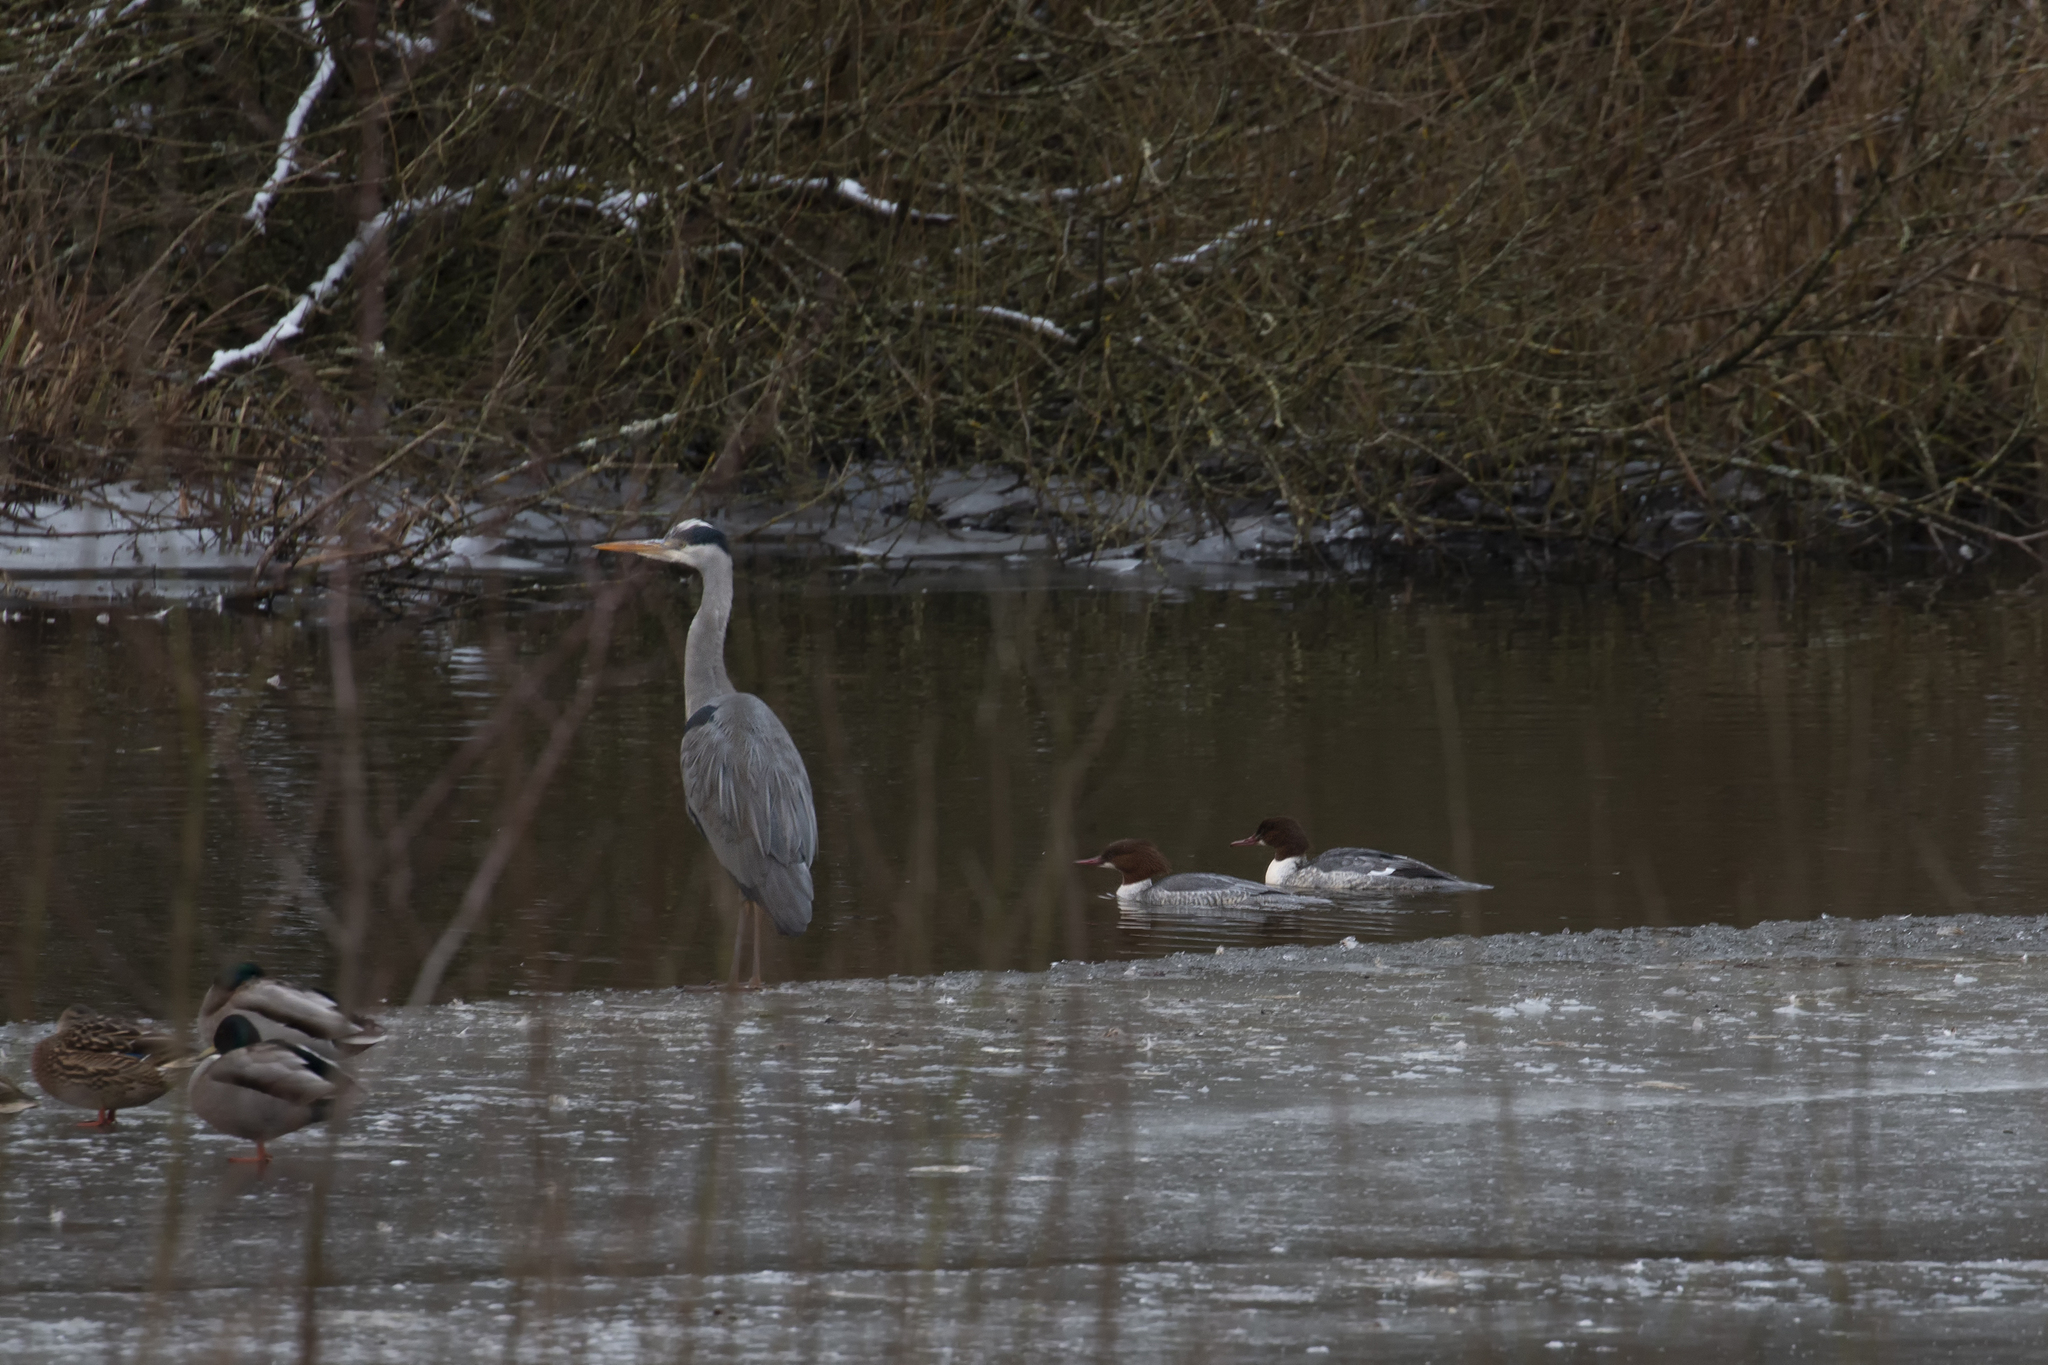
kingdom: Animalia
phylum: Chordata
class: Aves
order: Pelecaniformes
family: Ardeidae
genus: Ardea
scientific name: Ardea cinerea
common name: Grey heron
